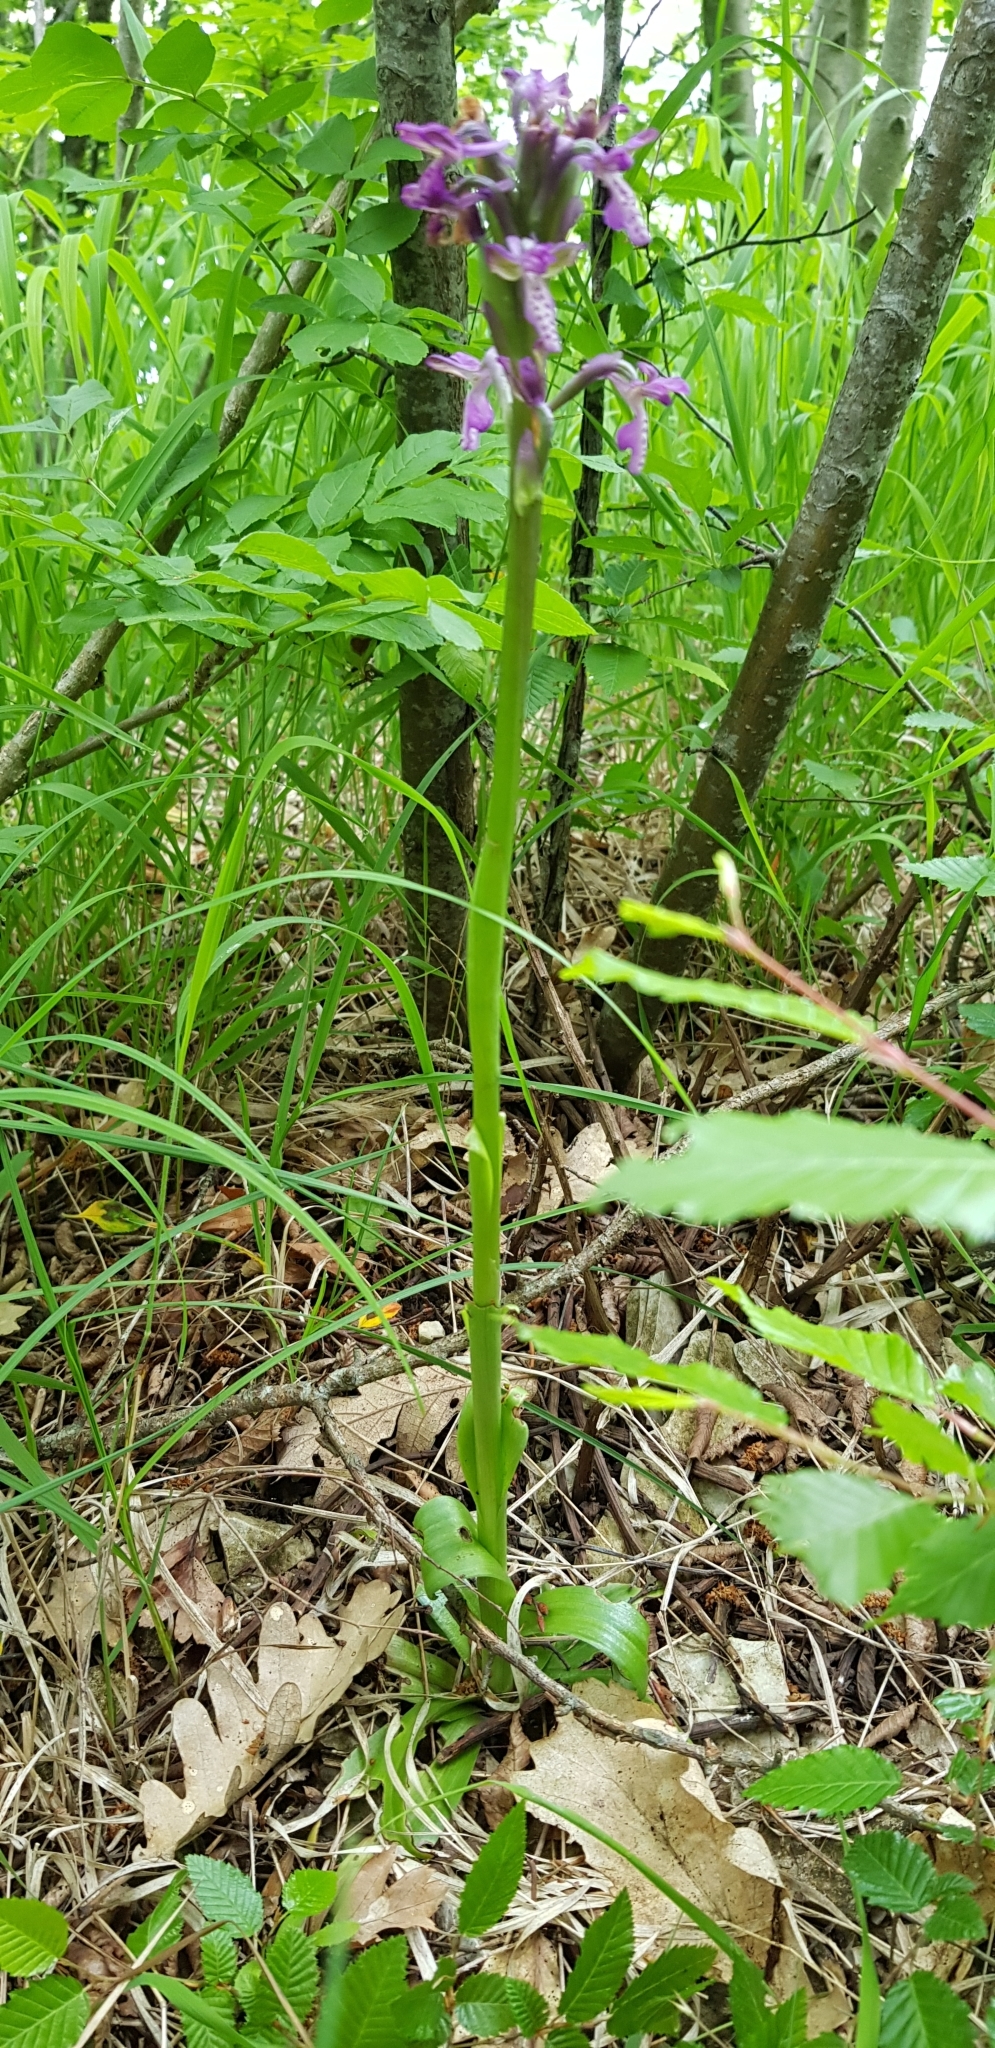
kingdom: Plantae
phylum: Tracheophyta
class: Liliopsida
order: Asparagales
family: Orchidaceae
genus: Anacamptis
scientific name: Anacamptis morio
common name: Green-winged orchid
